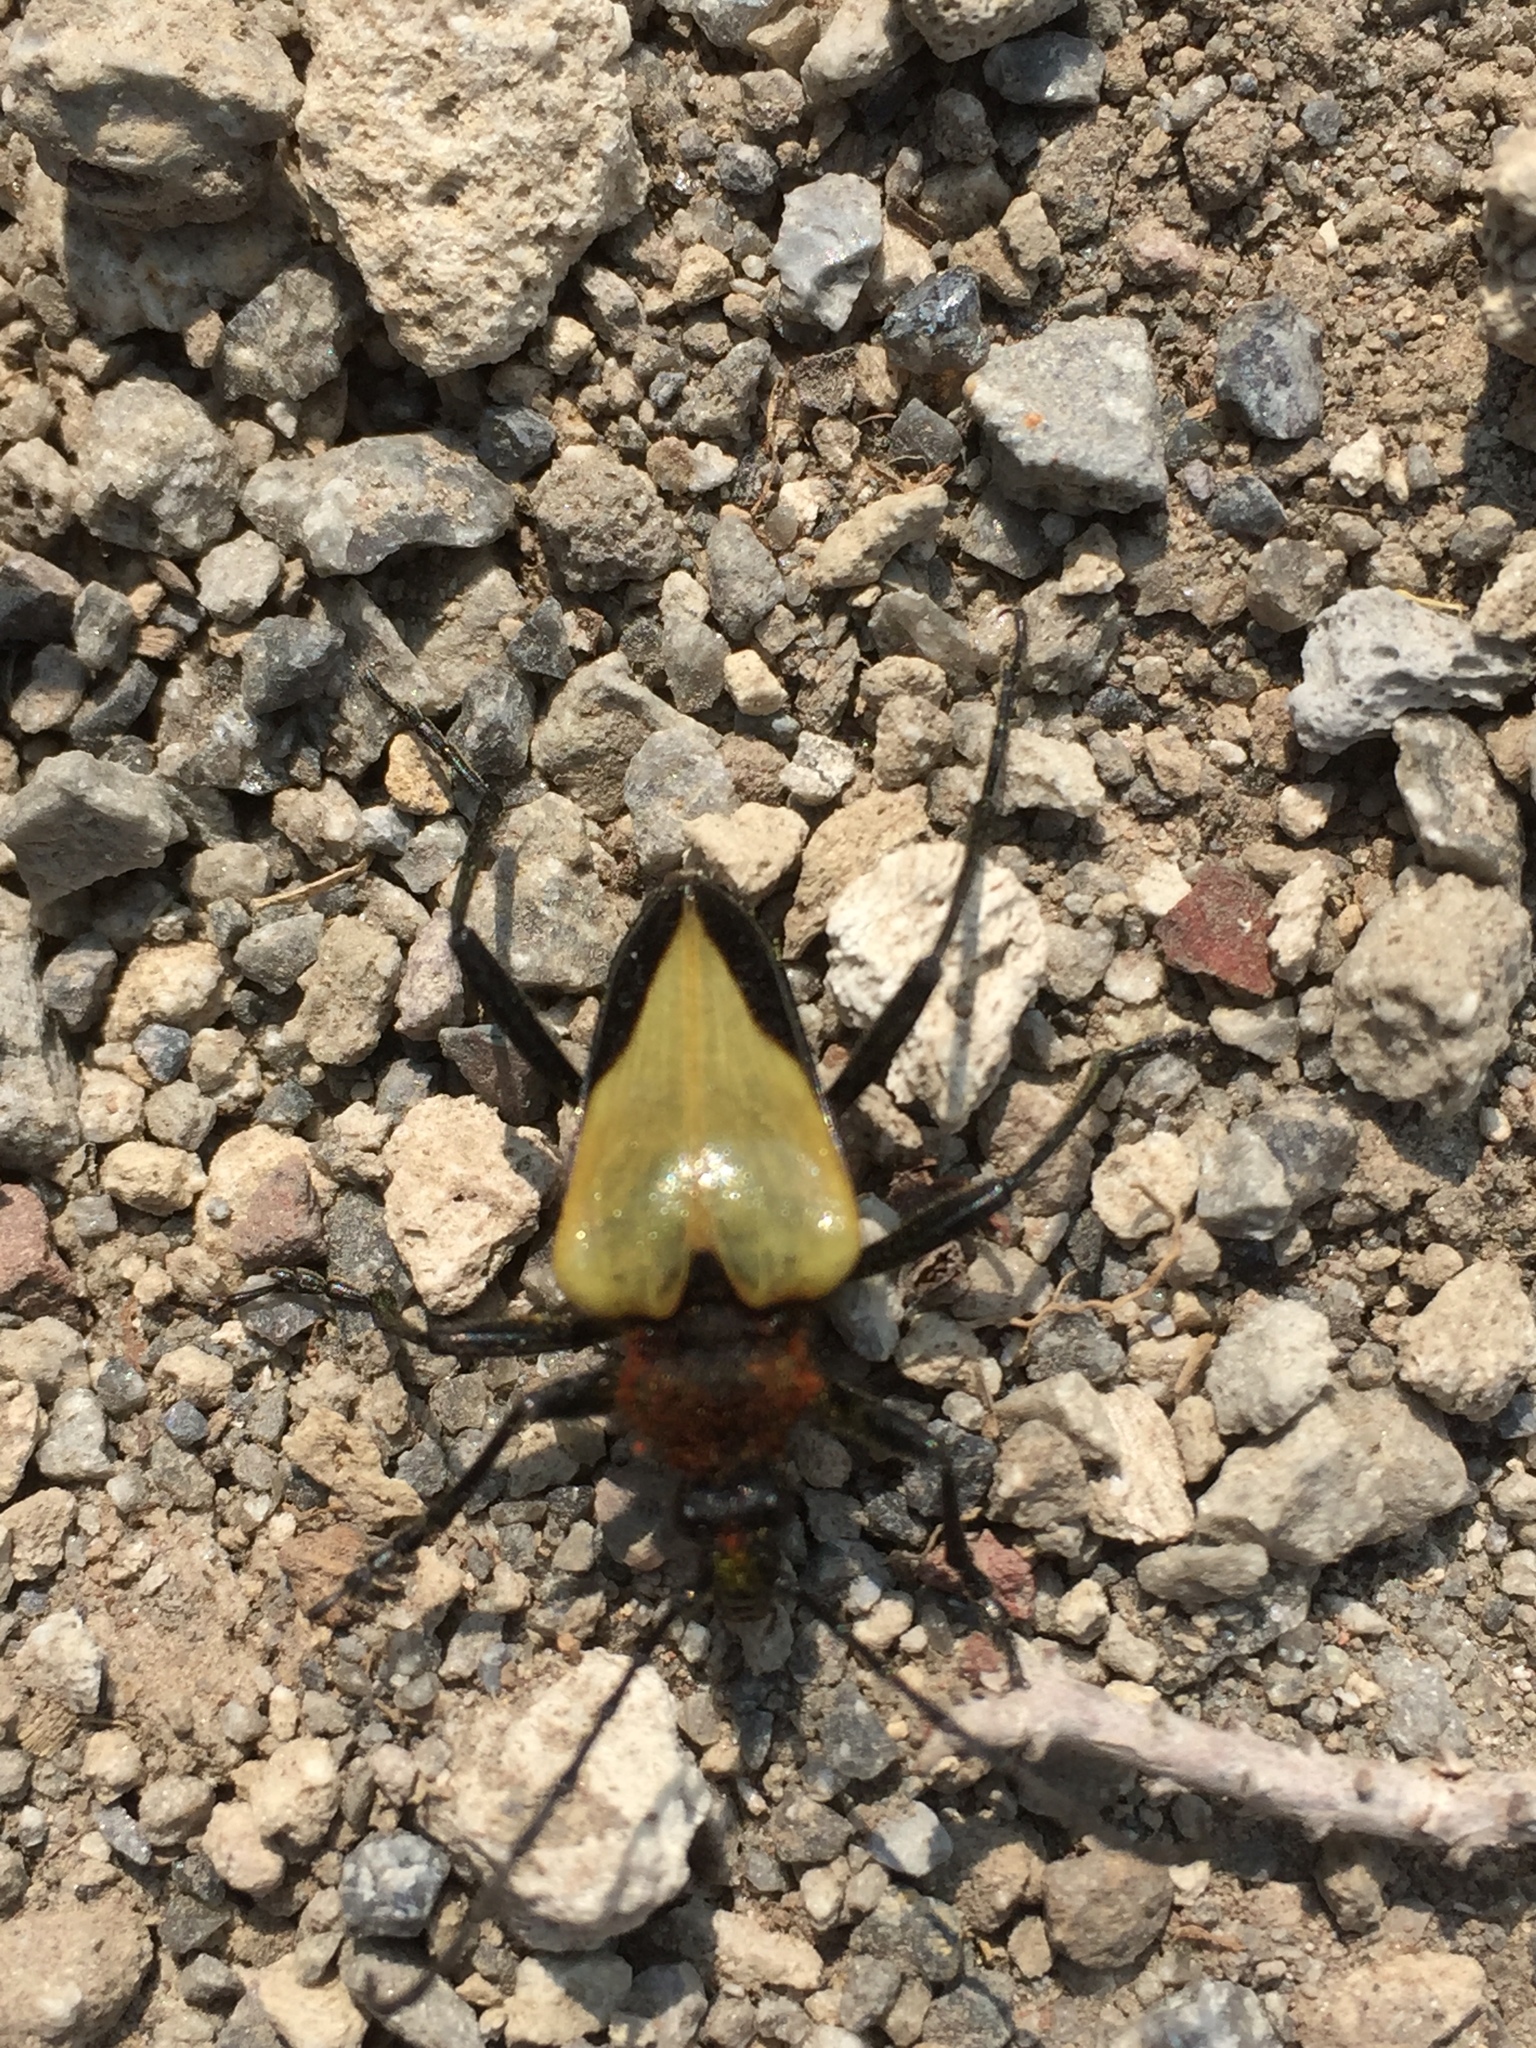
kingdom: Animalia
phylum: Arthropoda
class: Insecta
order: Coleoptera
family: Cerambycidae
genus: Pachyta
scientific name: Pachyta armata
